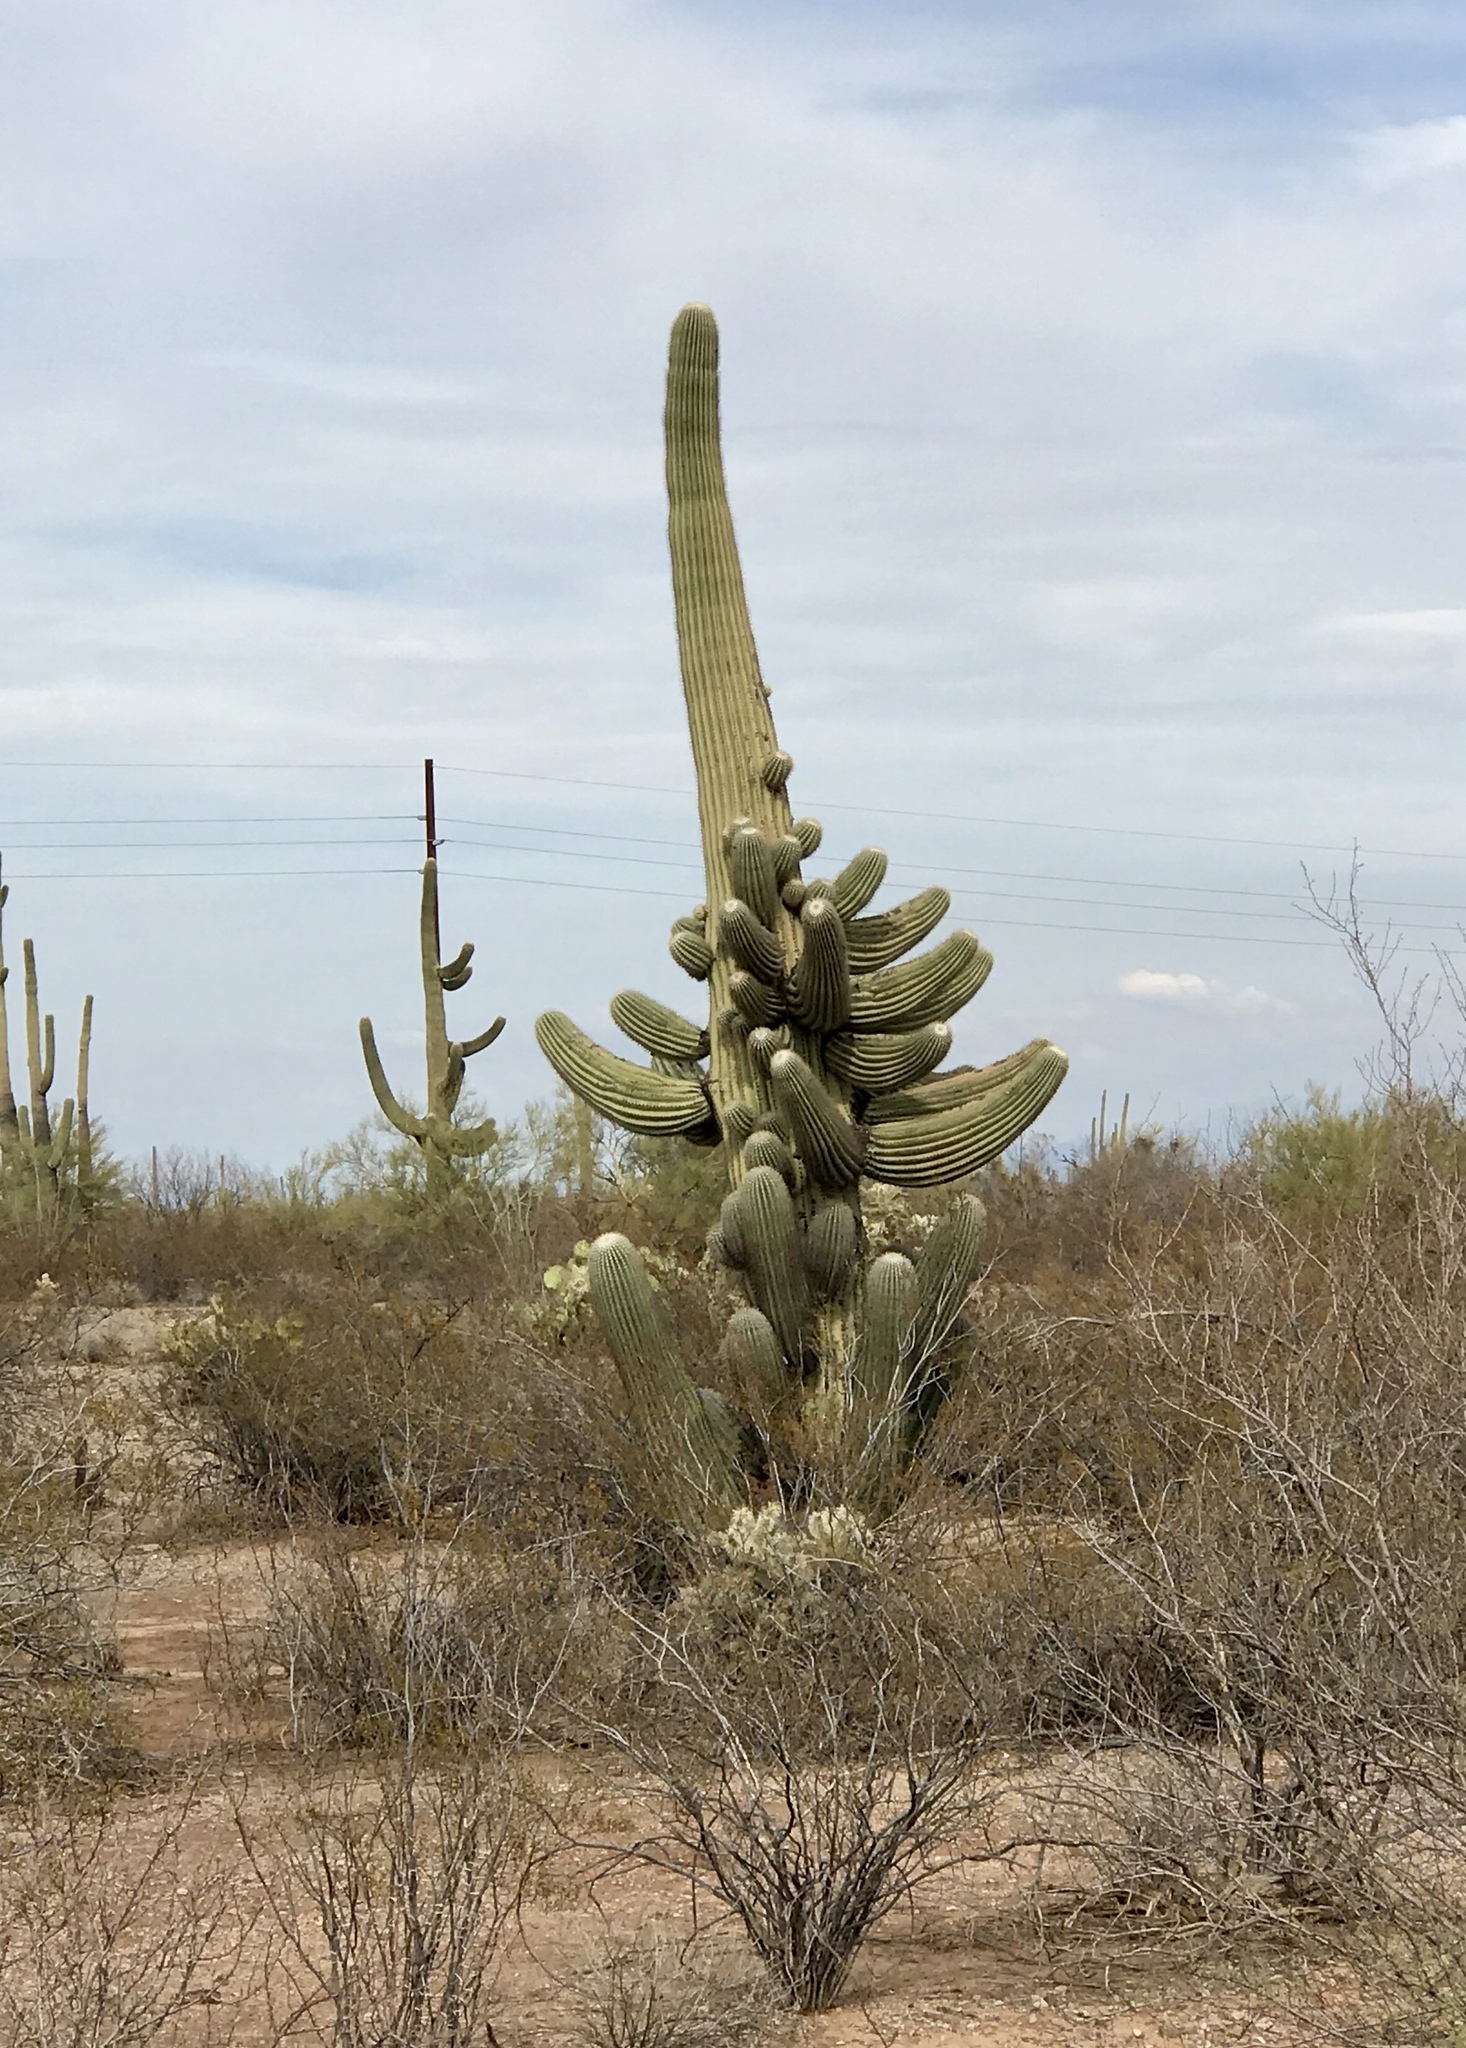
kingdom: Plantae
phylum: Tracheophyta
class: Magnoliopsida
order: Caryophyllales
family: Cactaceae
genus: Carnegiea
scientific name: Carnegiea gigantea
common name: Saguaro
